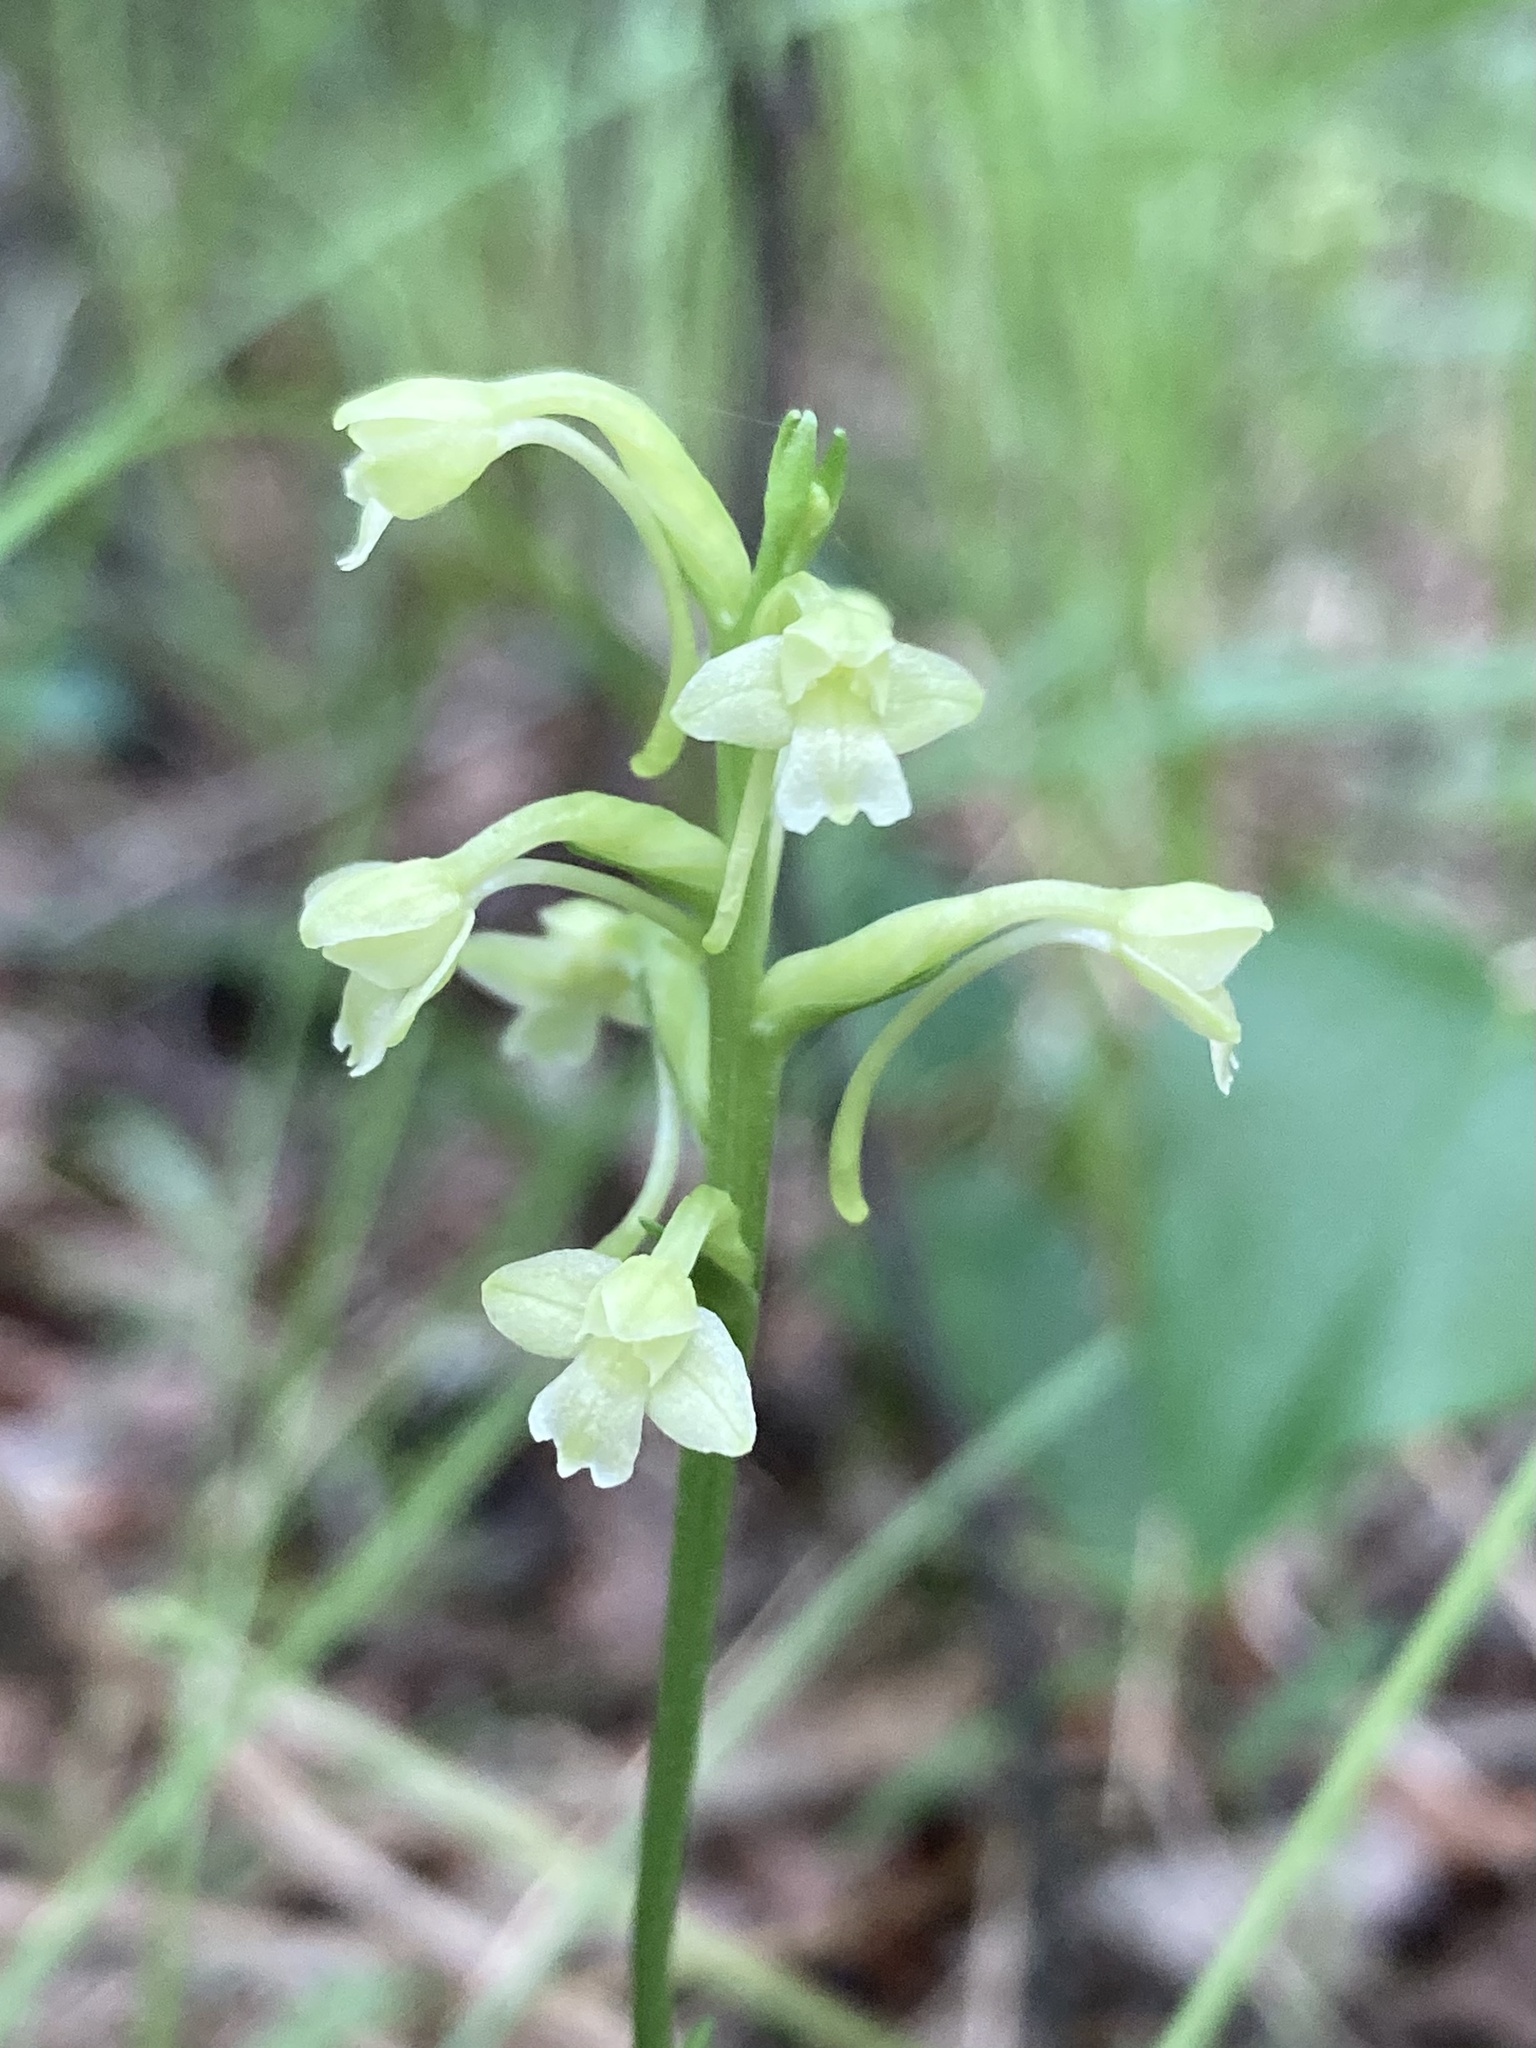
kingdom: Plantae
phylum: Tracheophyta
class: Liliopsida
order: Asparagales
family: Orchidaceae
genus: Platanthera
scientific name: Platanthera clavellata
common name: Club-spur orchid
